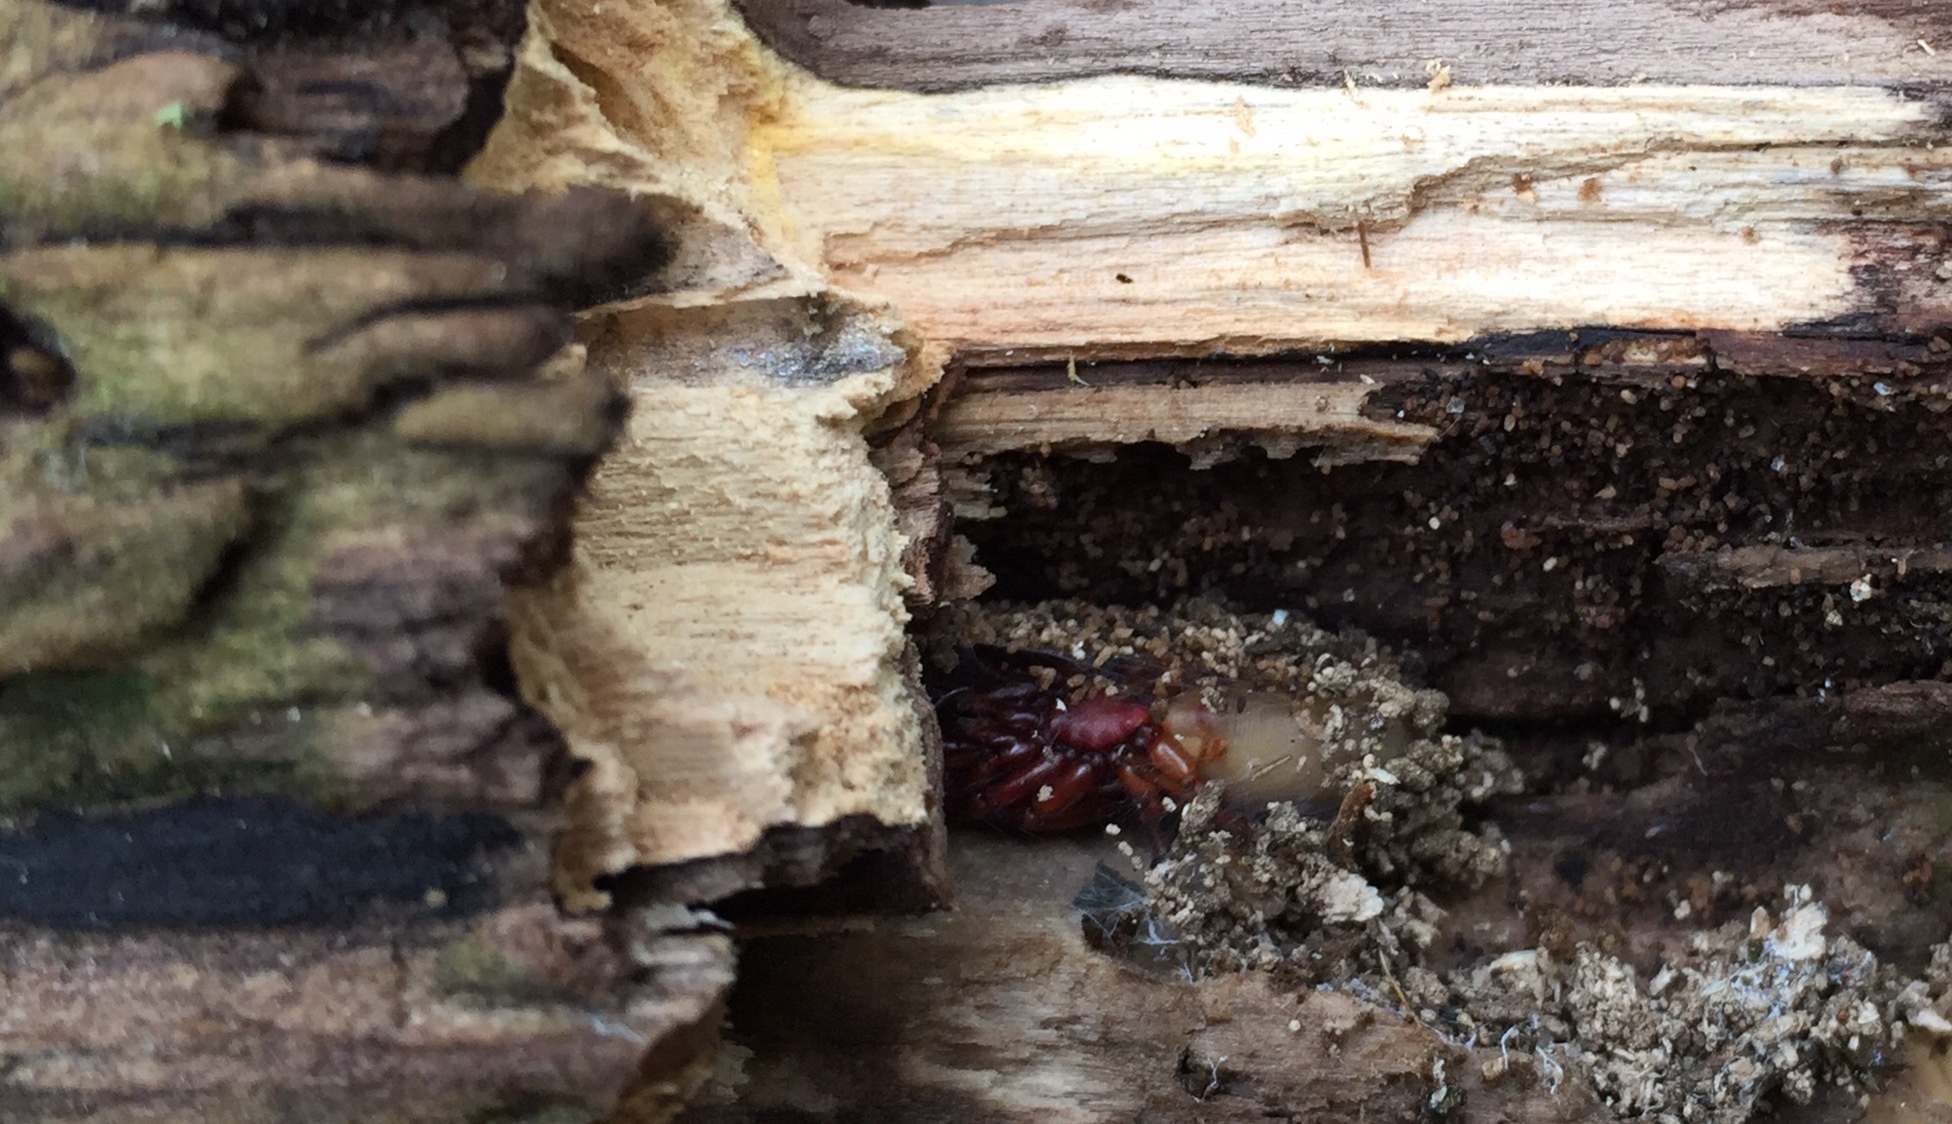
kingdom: Animalia
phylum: Arthropoda
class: Arachnida
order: Araneae
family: Dysderidae
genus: Dysdera
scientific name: Dysdera crocata
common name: Woodlouse spider
